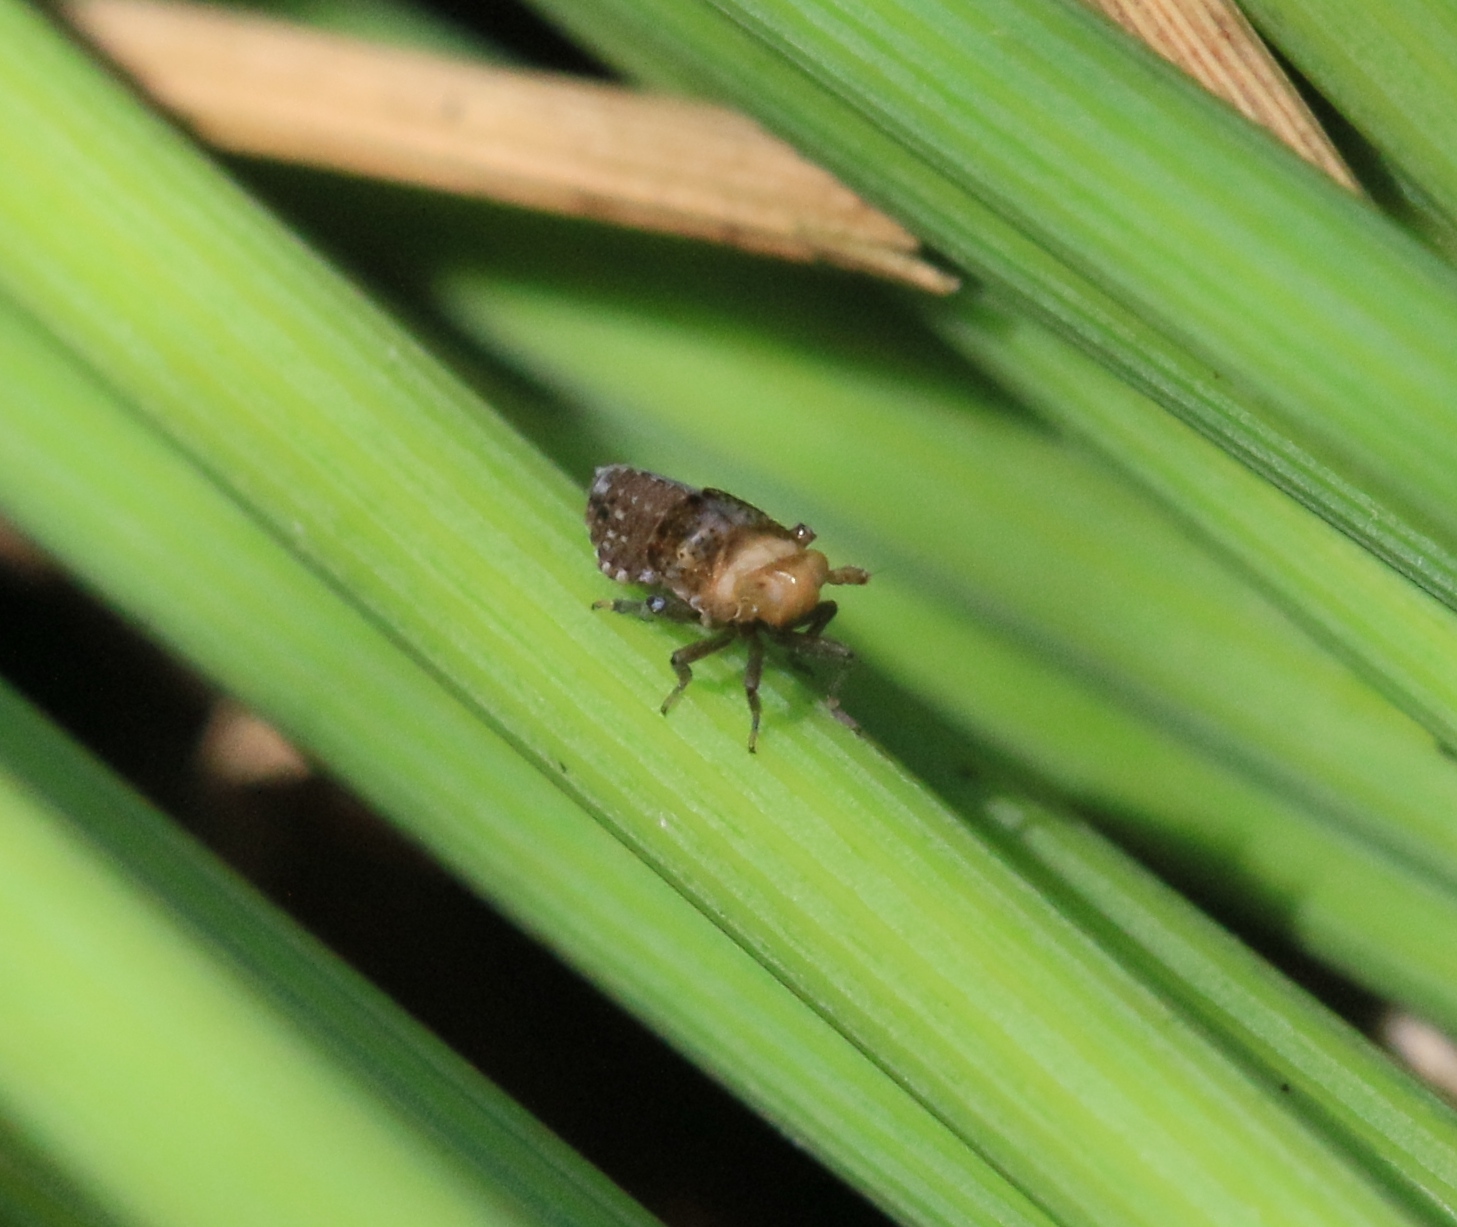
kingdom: Animalia
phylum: Arthropoda
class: Insecta
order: Hemiptera
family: Delphacidae
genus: Conomelus
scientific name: Conomelus anceps
